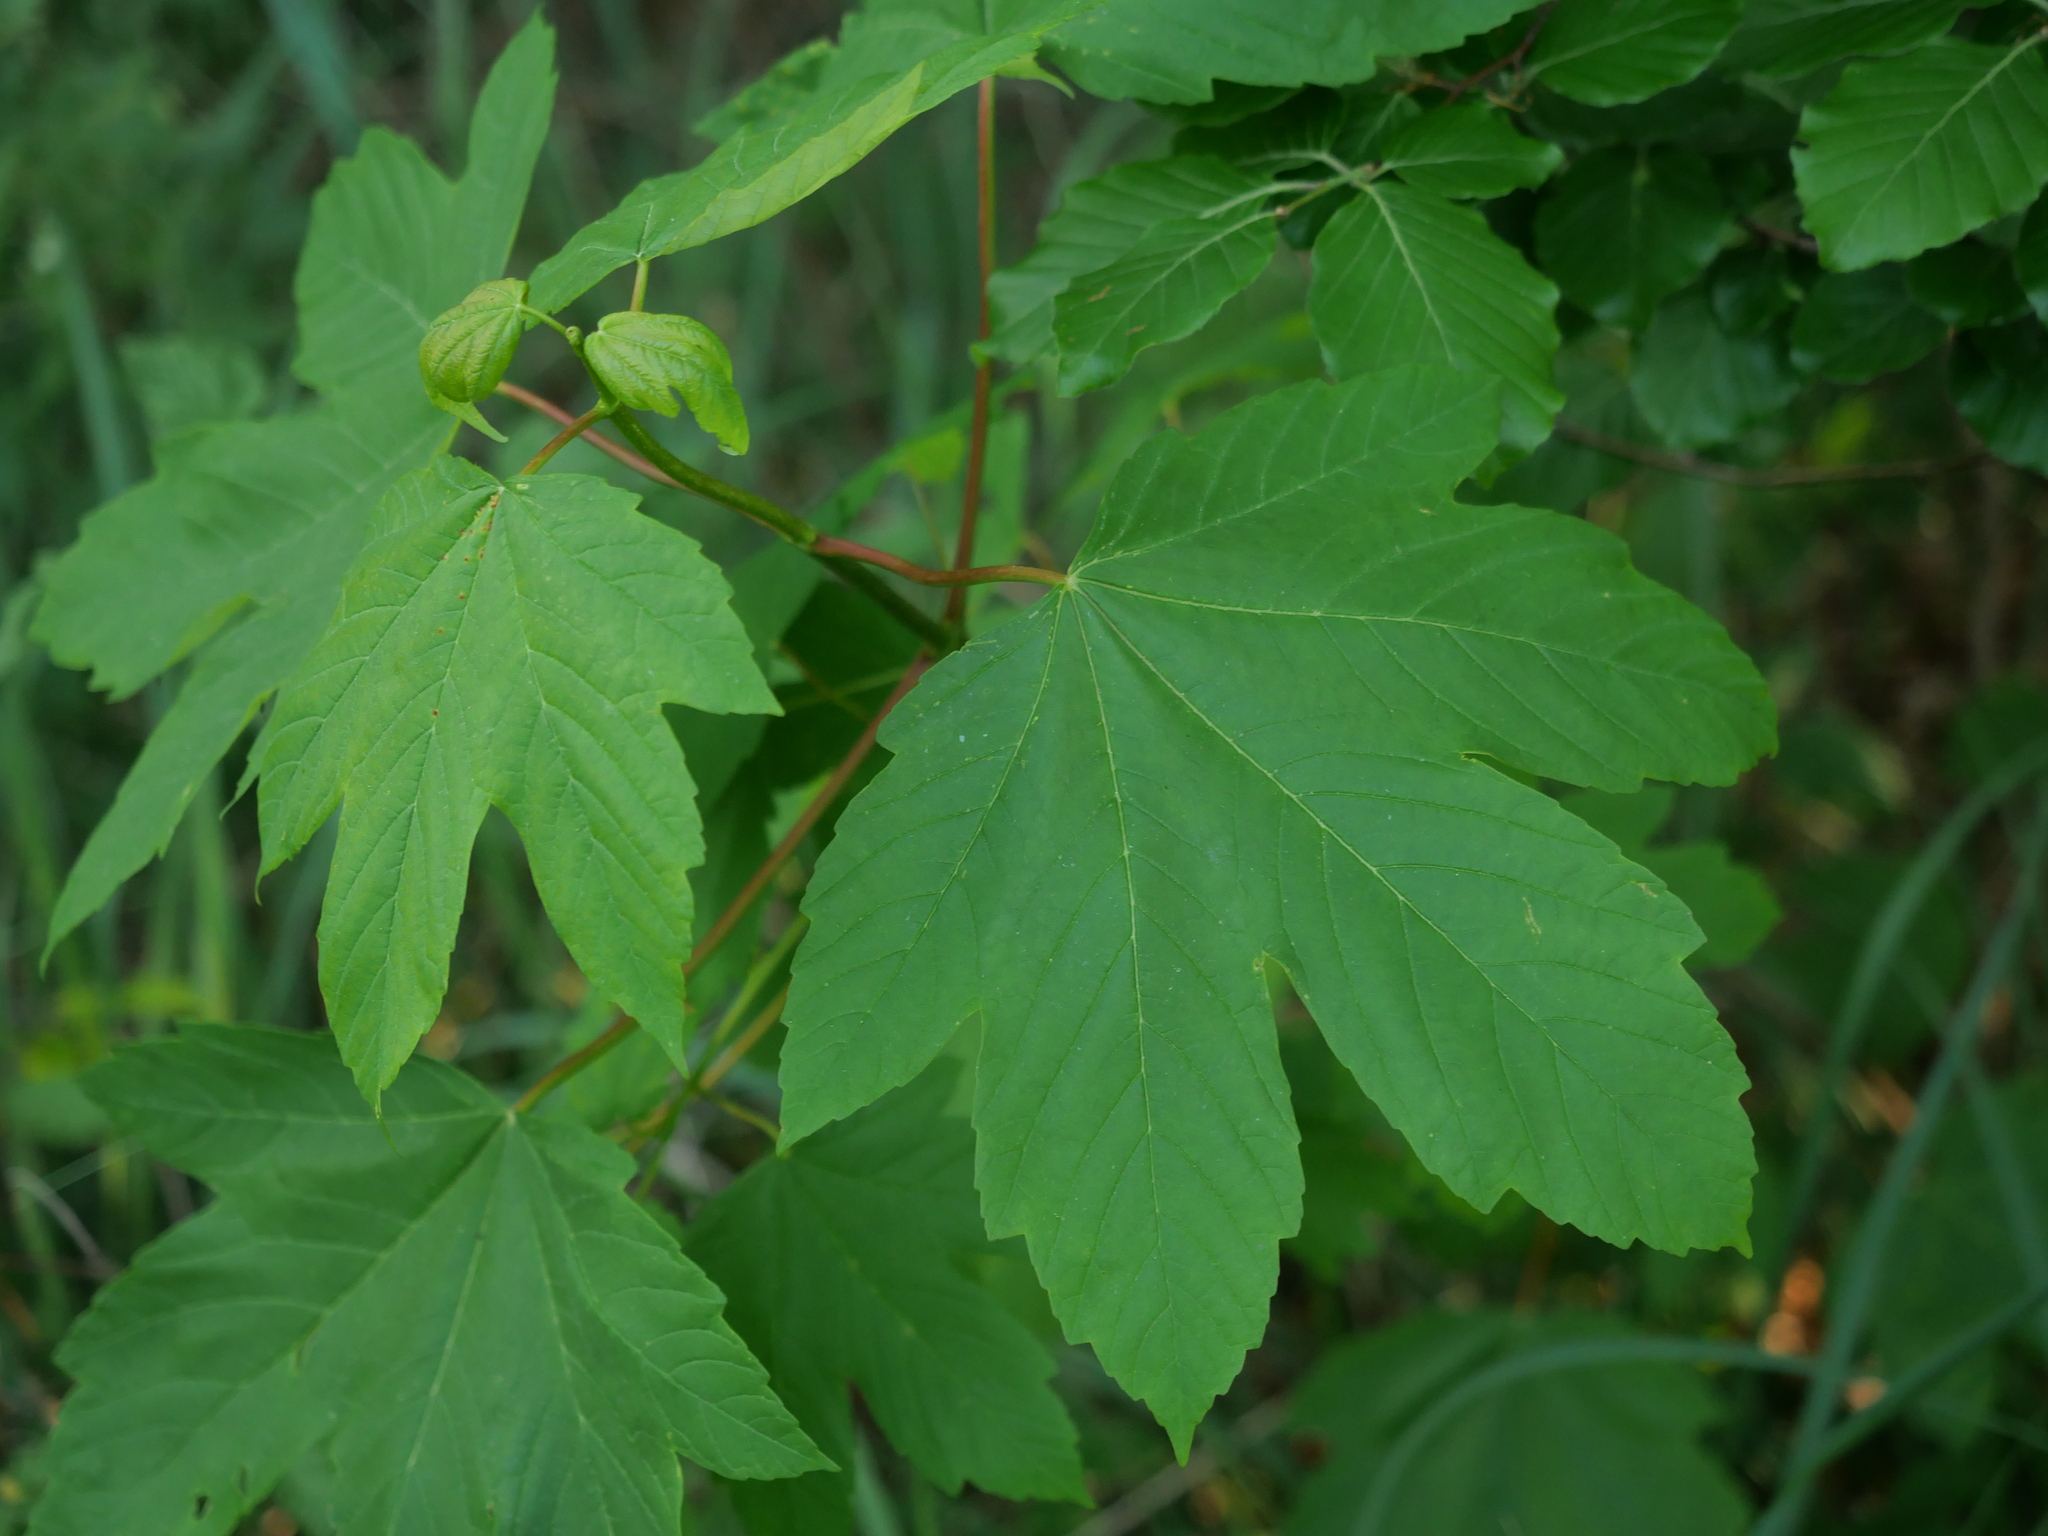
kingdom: Plantae
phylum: Tracheophyta
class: Magnoliopsida
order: Sapindales
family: Sapindaceae
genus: Acer
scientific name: Acer pseudoplatanus
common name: Sycamore
